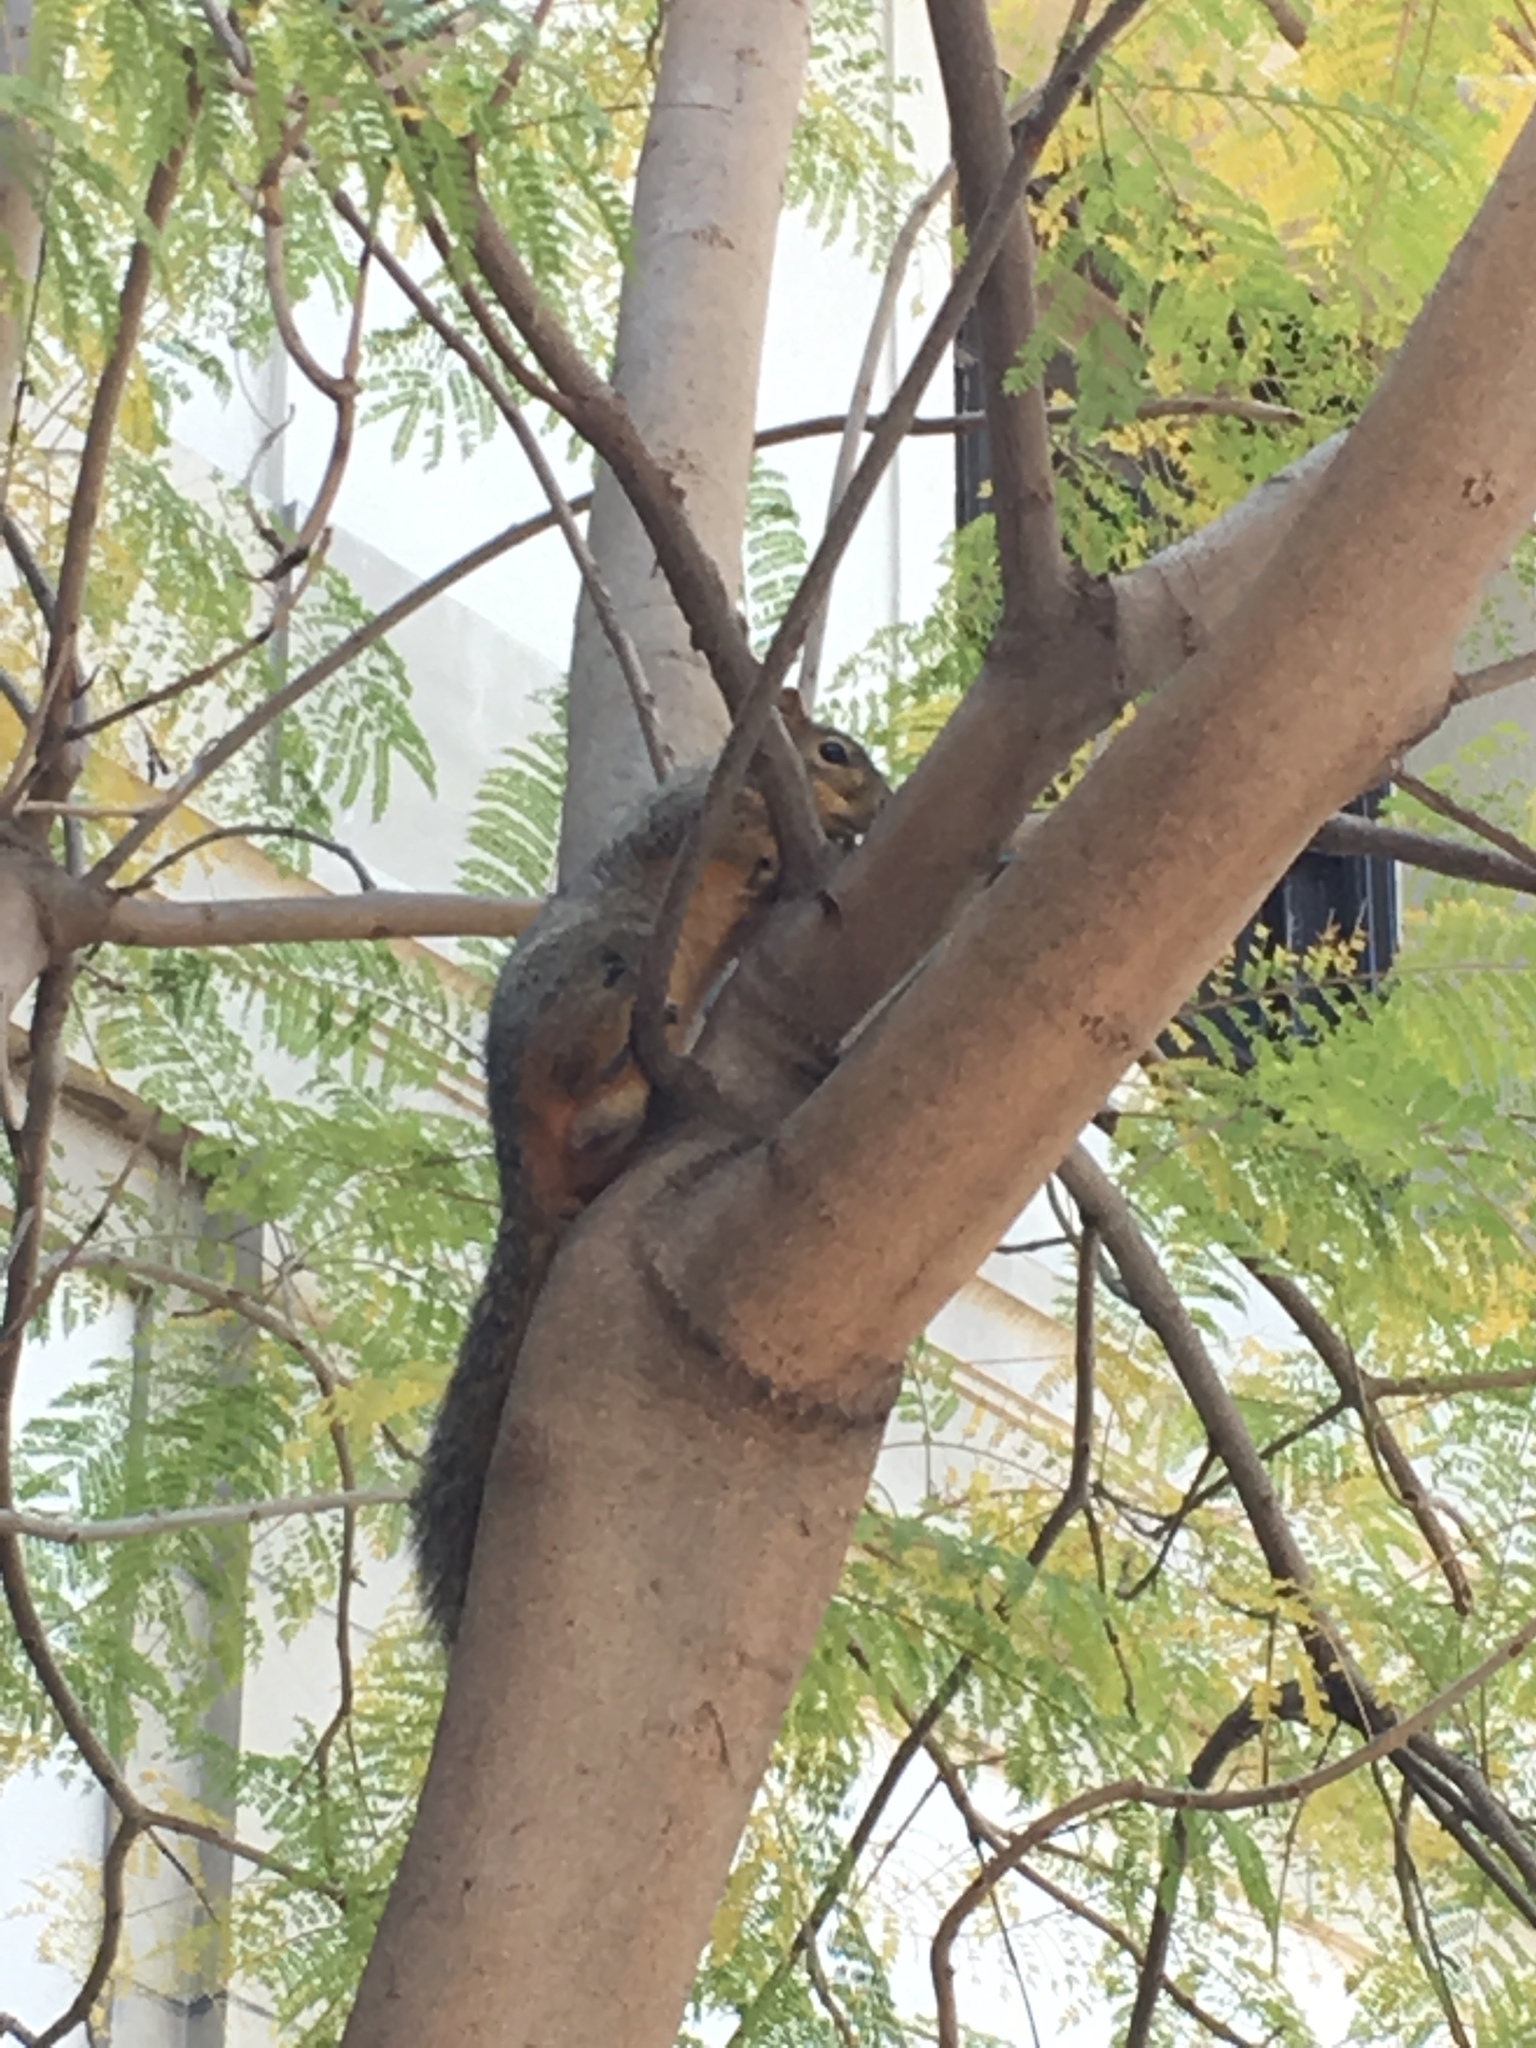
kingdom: Animalia
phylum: Chordata
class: Mammalia
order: Rodentia
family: Sciuridae
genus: Sciurus
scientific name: Sciurus niger
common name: Fox squirrel
